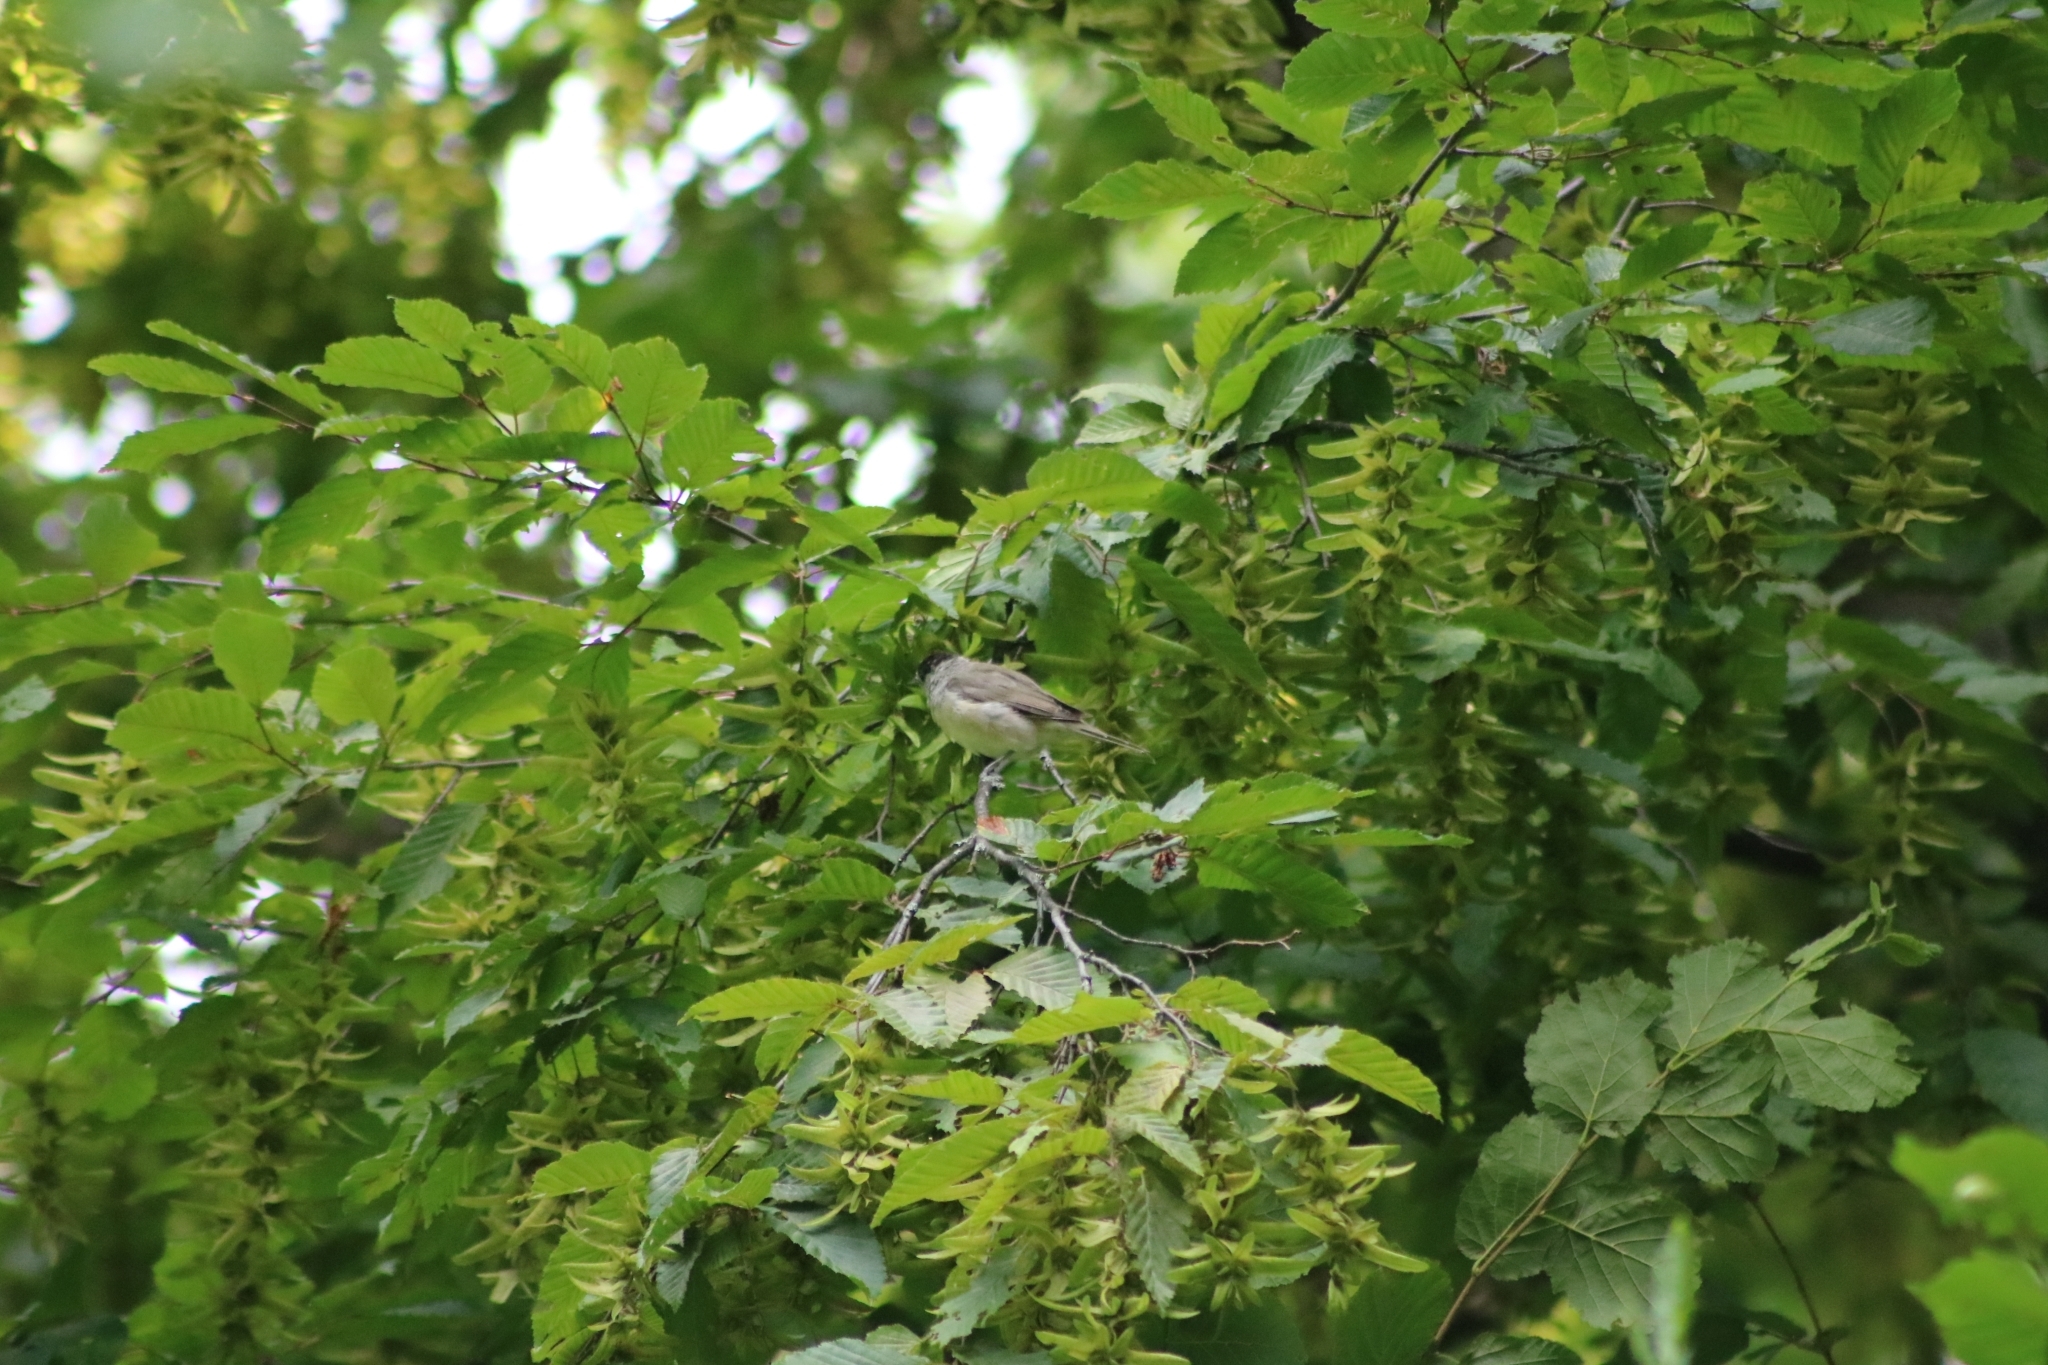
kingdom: Animalia
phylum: Chordata
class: Aves
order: Passeriformes
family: Sylviidae
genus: Sylvia
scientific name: Sylvia atricapilla
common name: Eurasian blackcap
